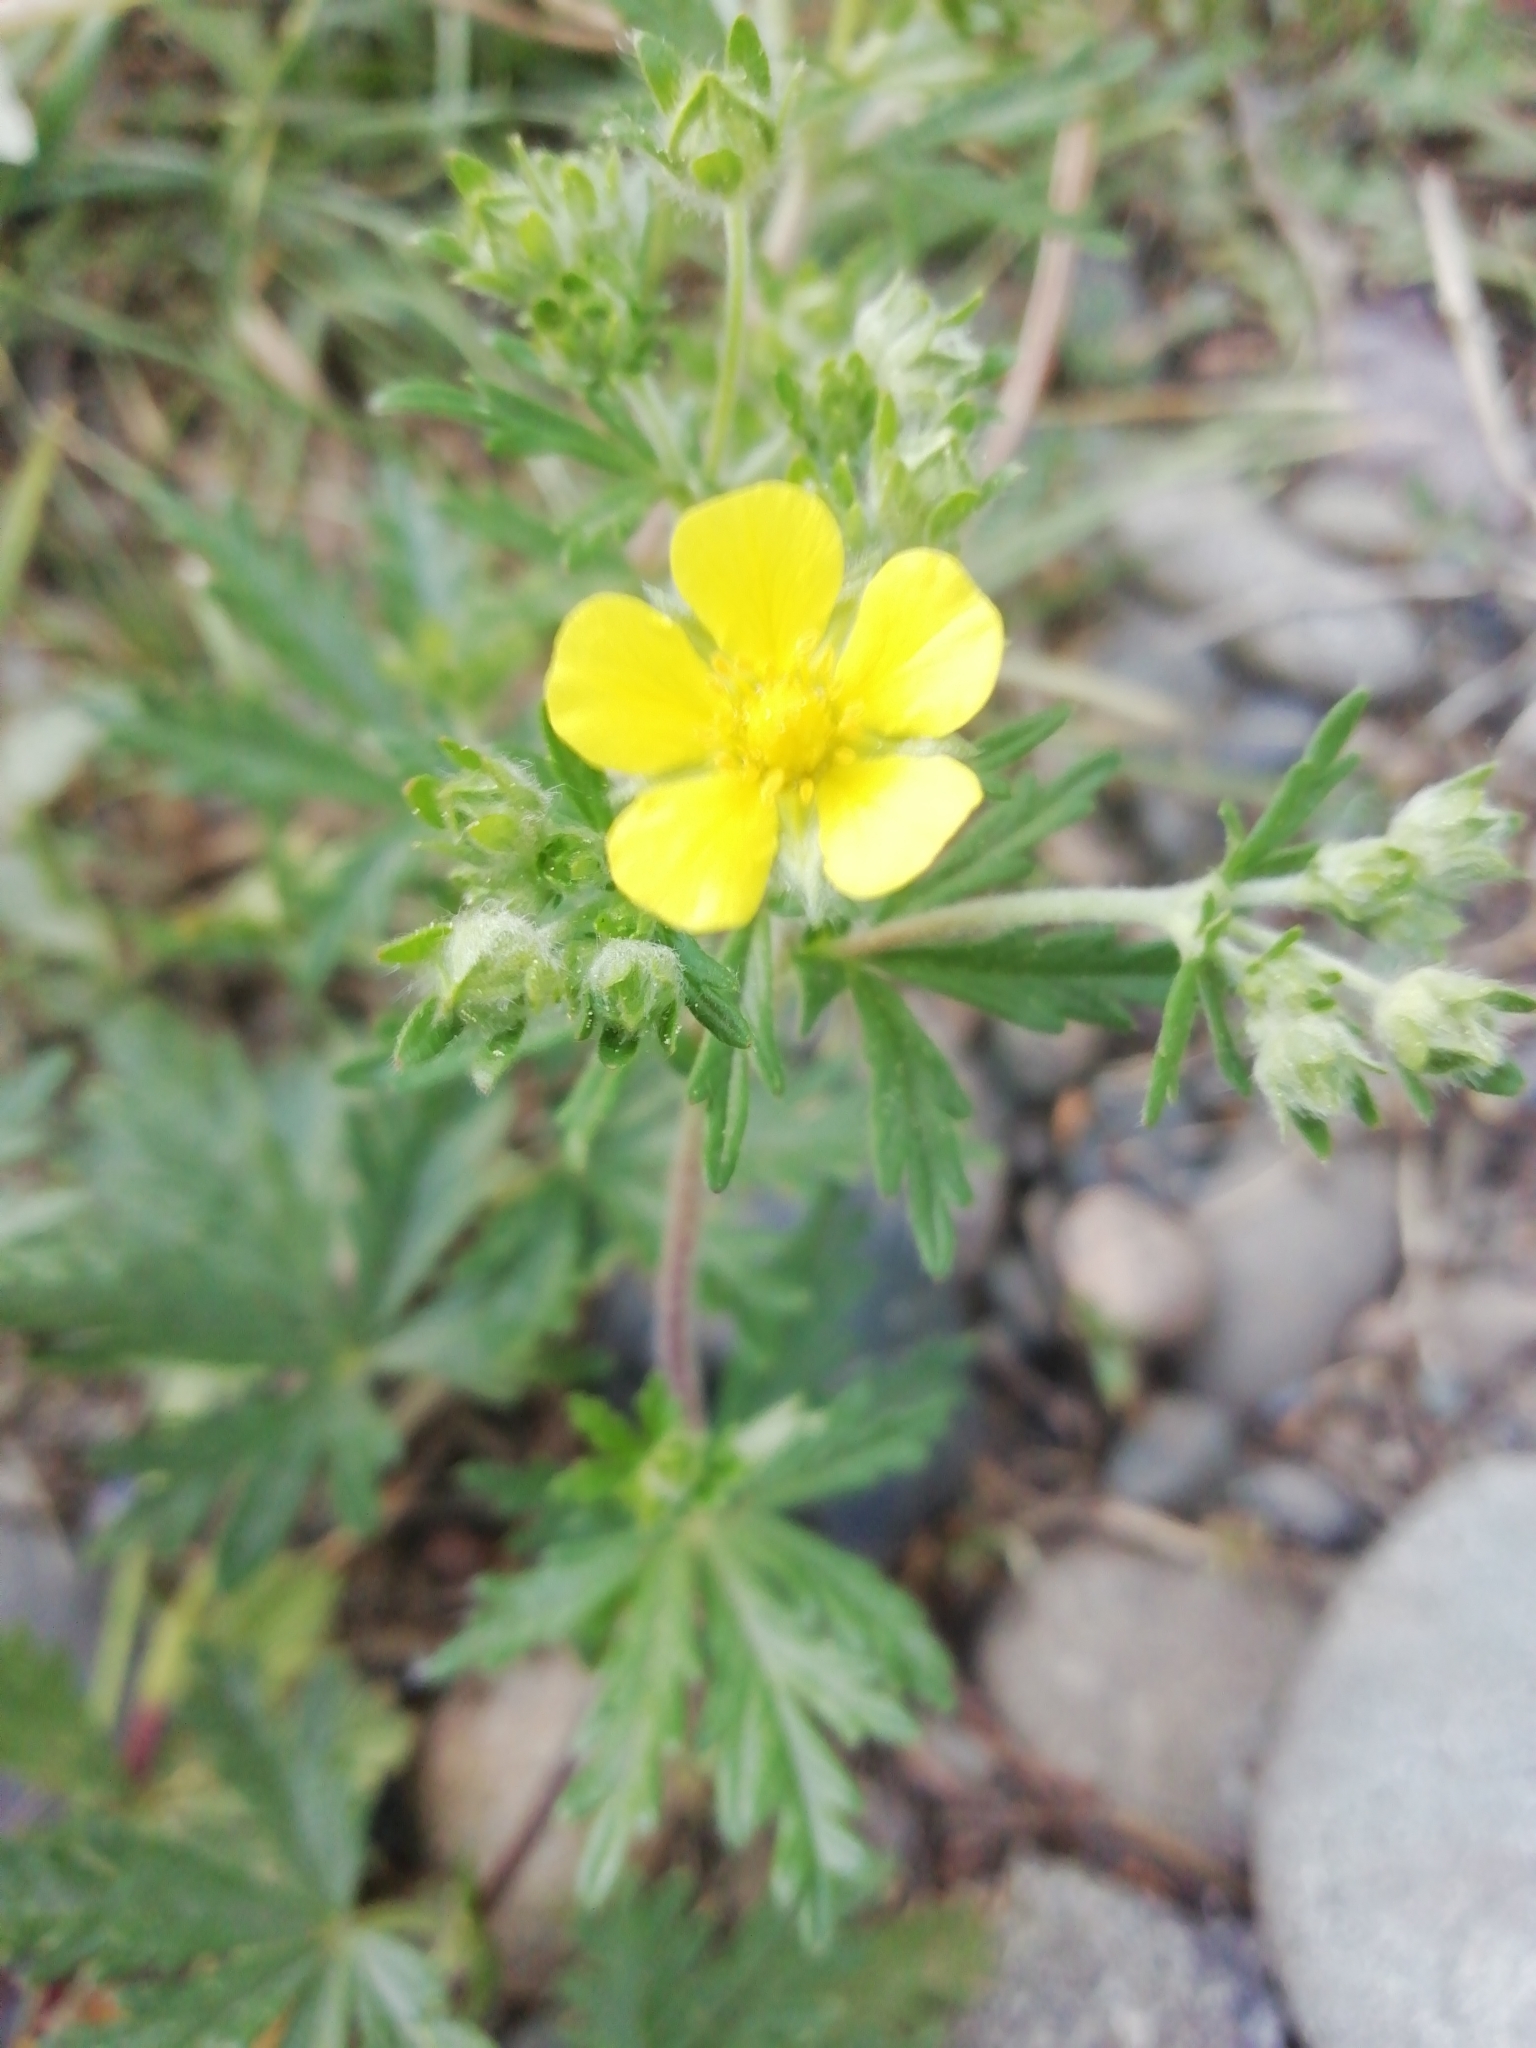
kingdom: Plantae
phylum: Tracheophyta
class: Magnoliopsida
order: Rosales
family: Rosaceae
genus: Potentilla
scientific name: Potentilla argentea
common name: Hoary cinquefoil
